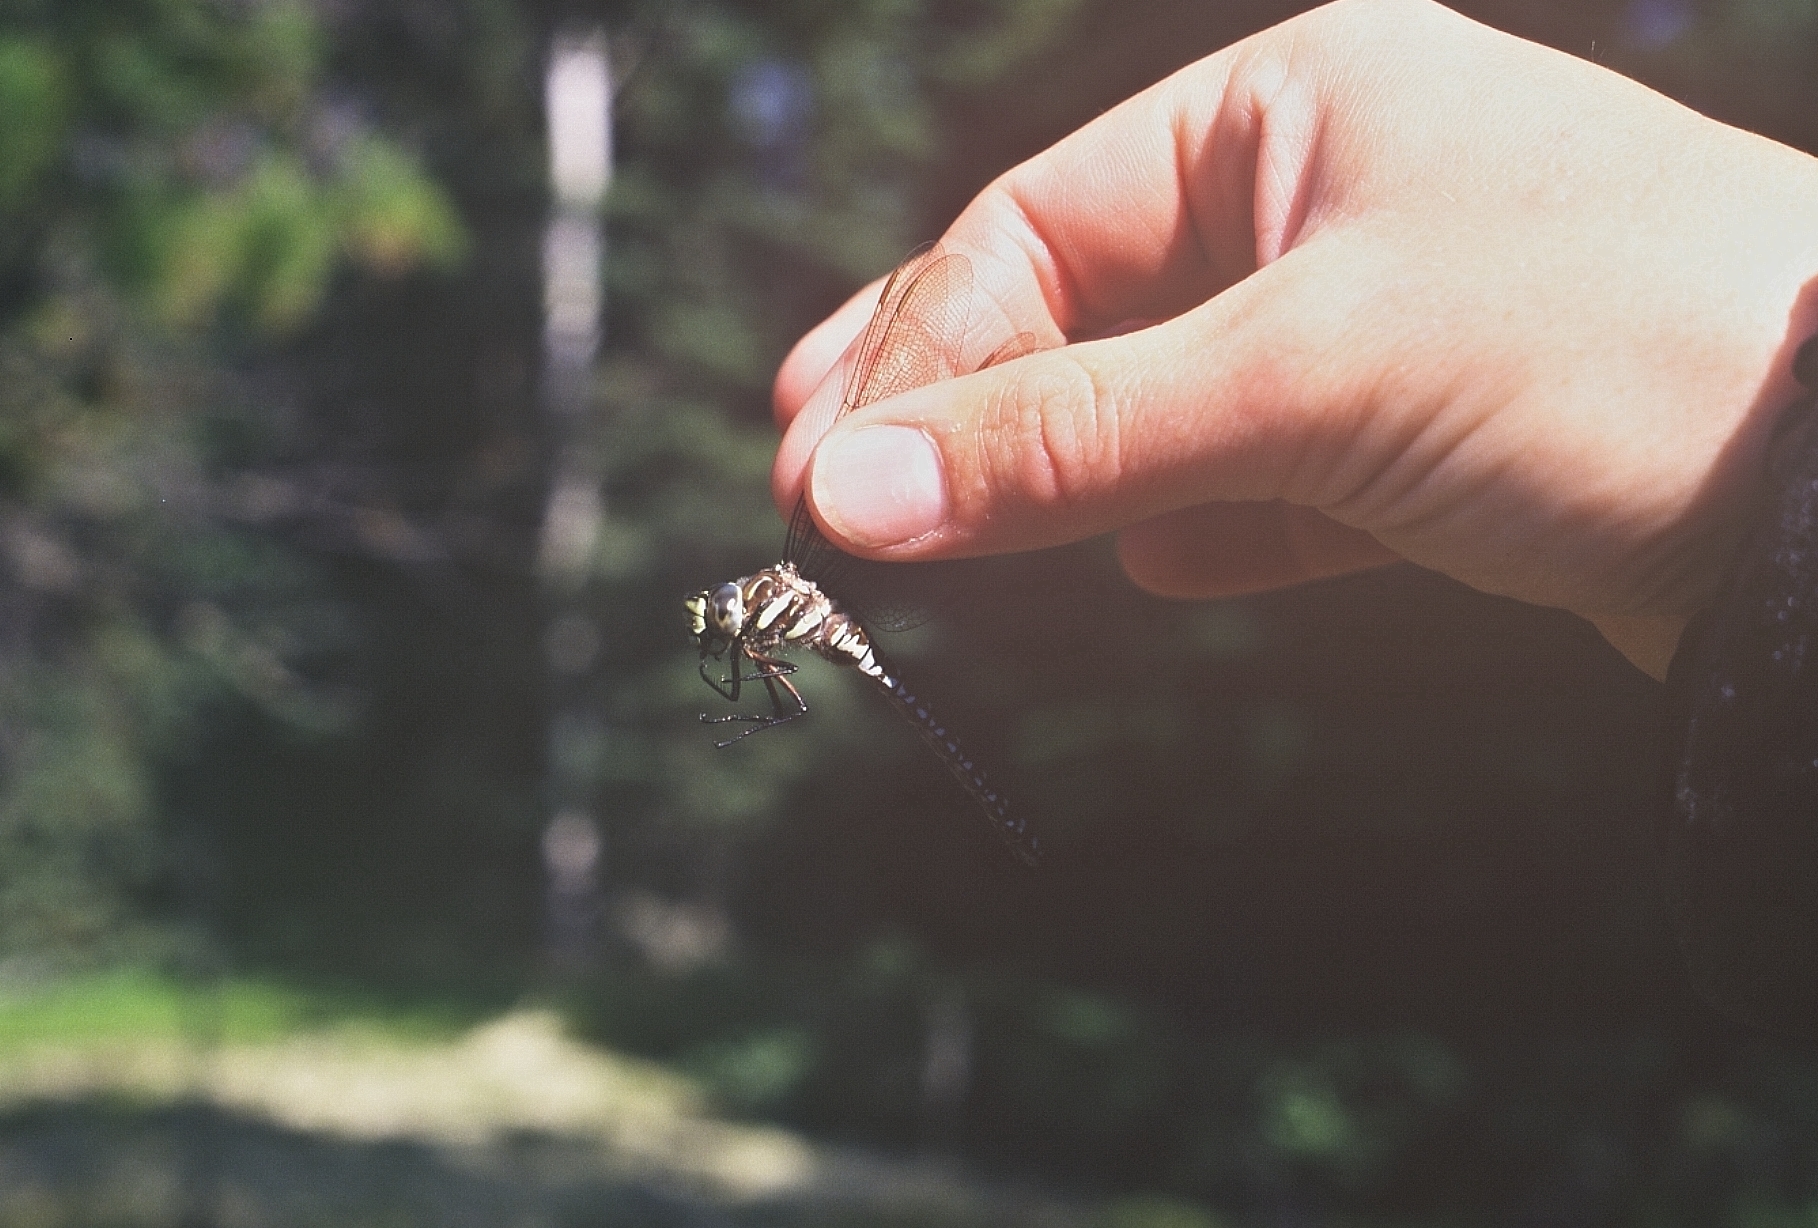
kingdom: Animalia
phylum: Arthropoda
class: Insecta
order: Odonata
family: Aeshnidae
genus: Aeshna
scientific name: Aeshna juncea
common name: Moorland hawker
